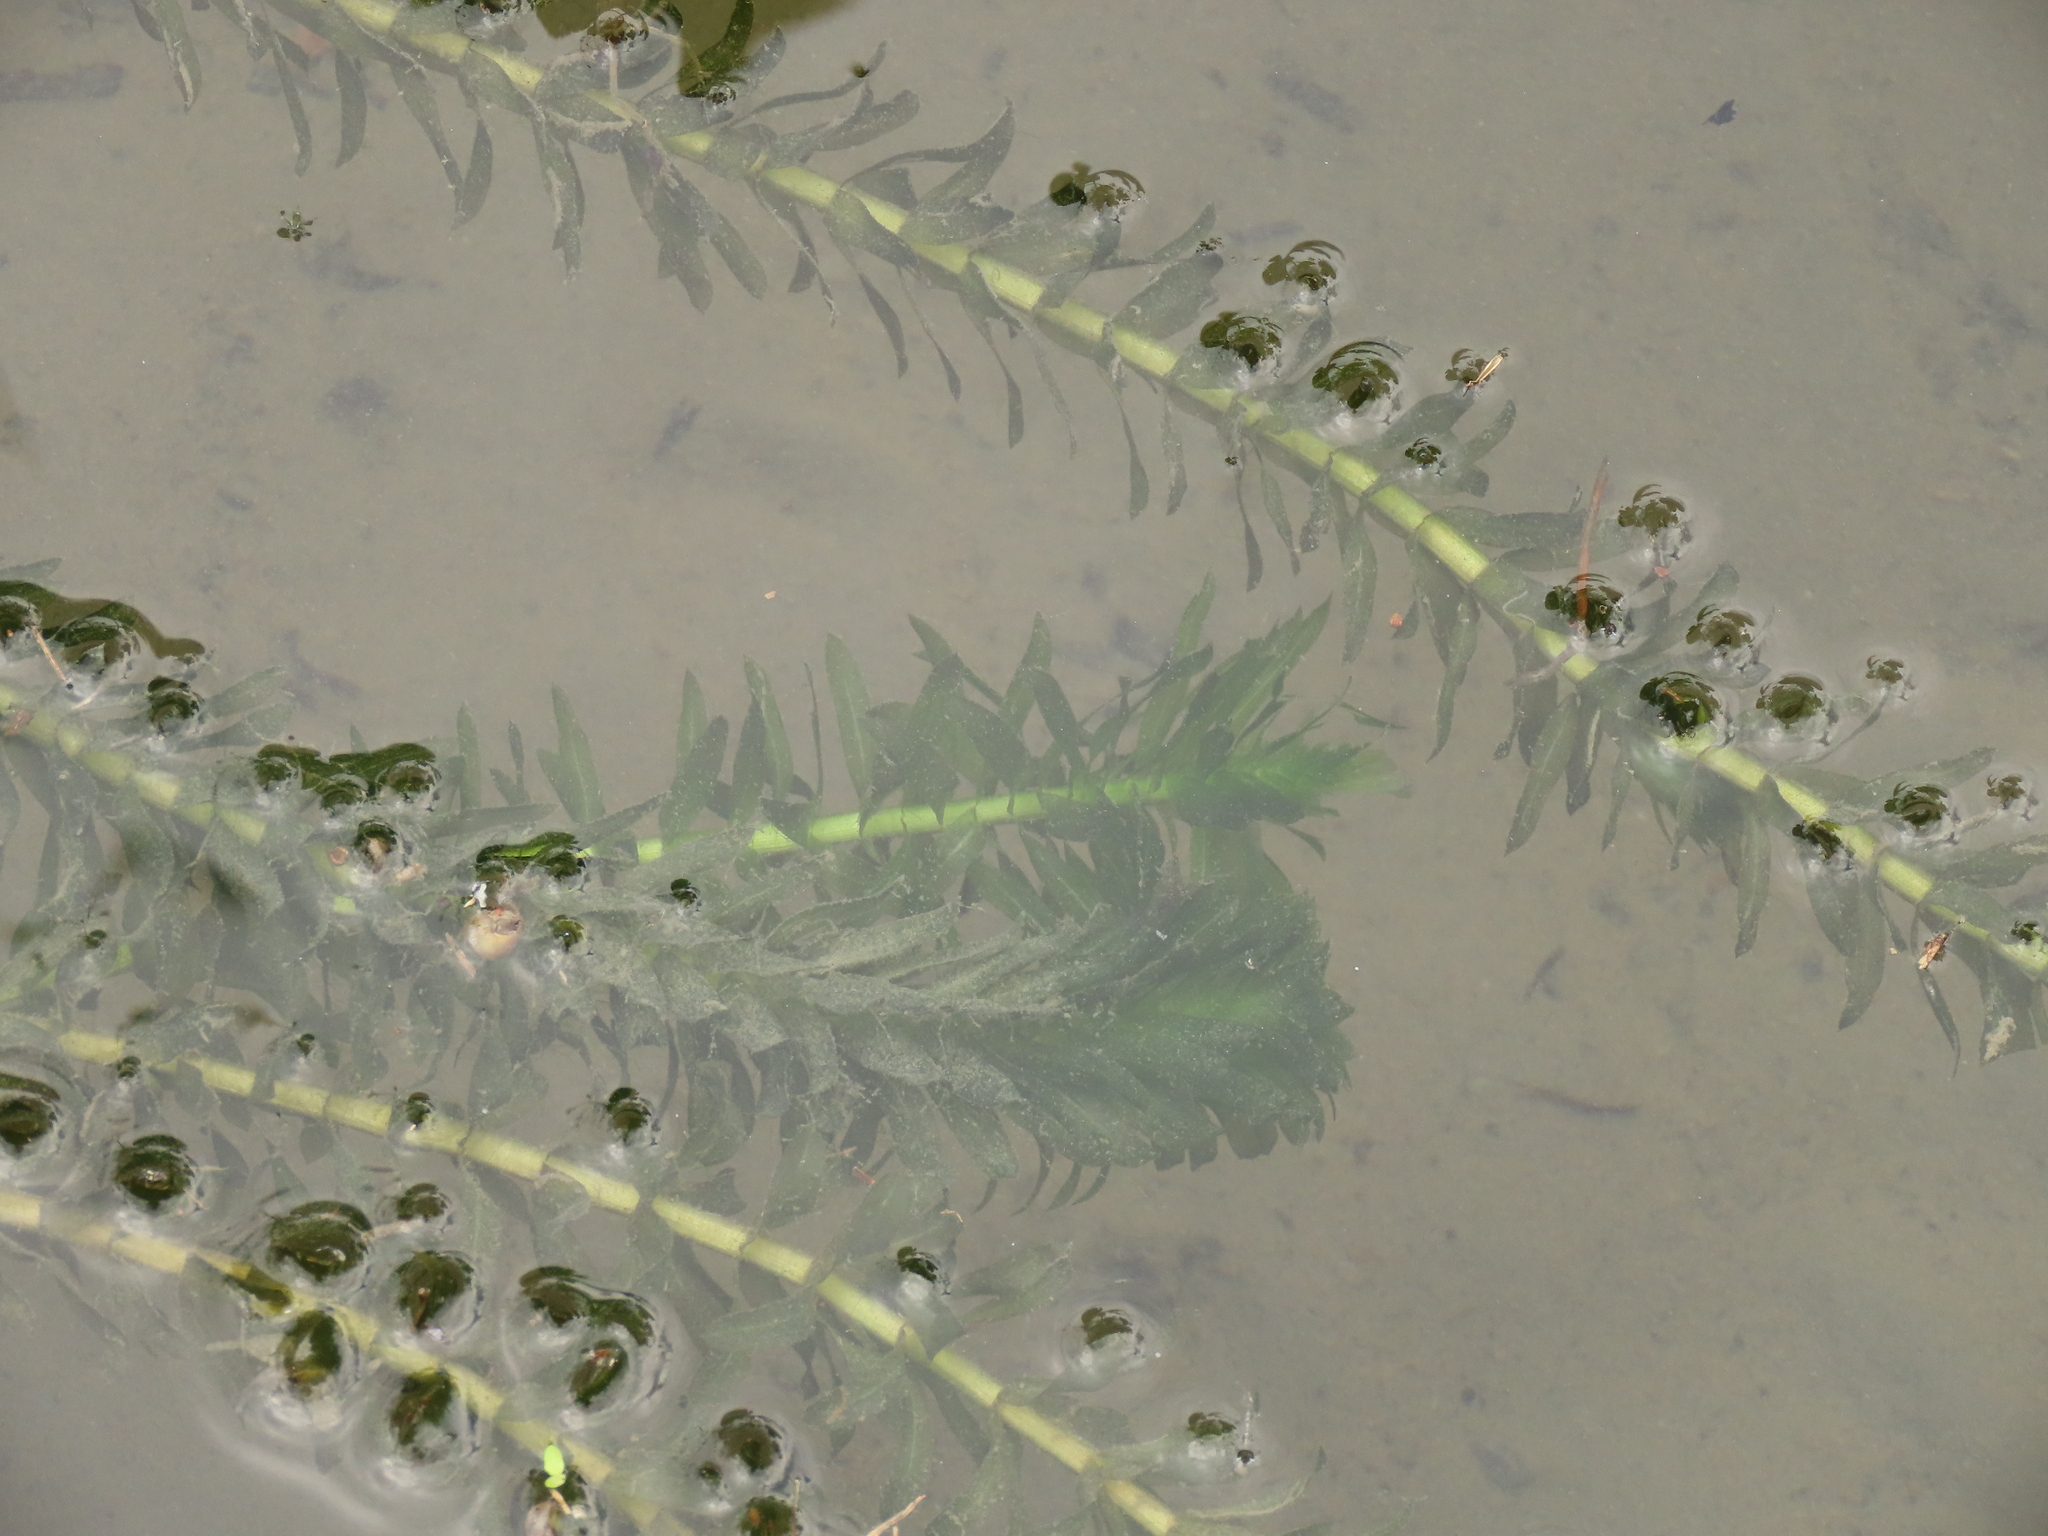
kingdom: Plantae
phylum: Tracheophyta
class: Liliopsida
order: Alismatales
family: Hydrocharitaceae
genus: Elodea
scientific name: Elodea densa
